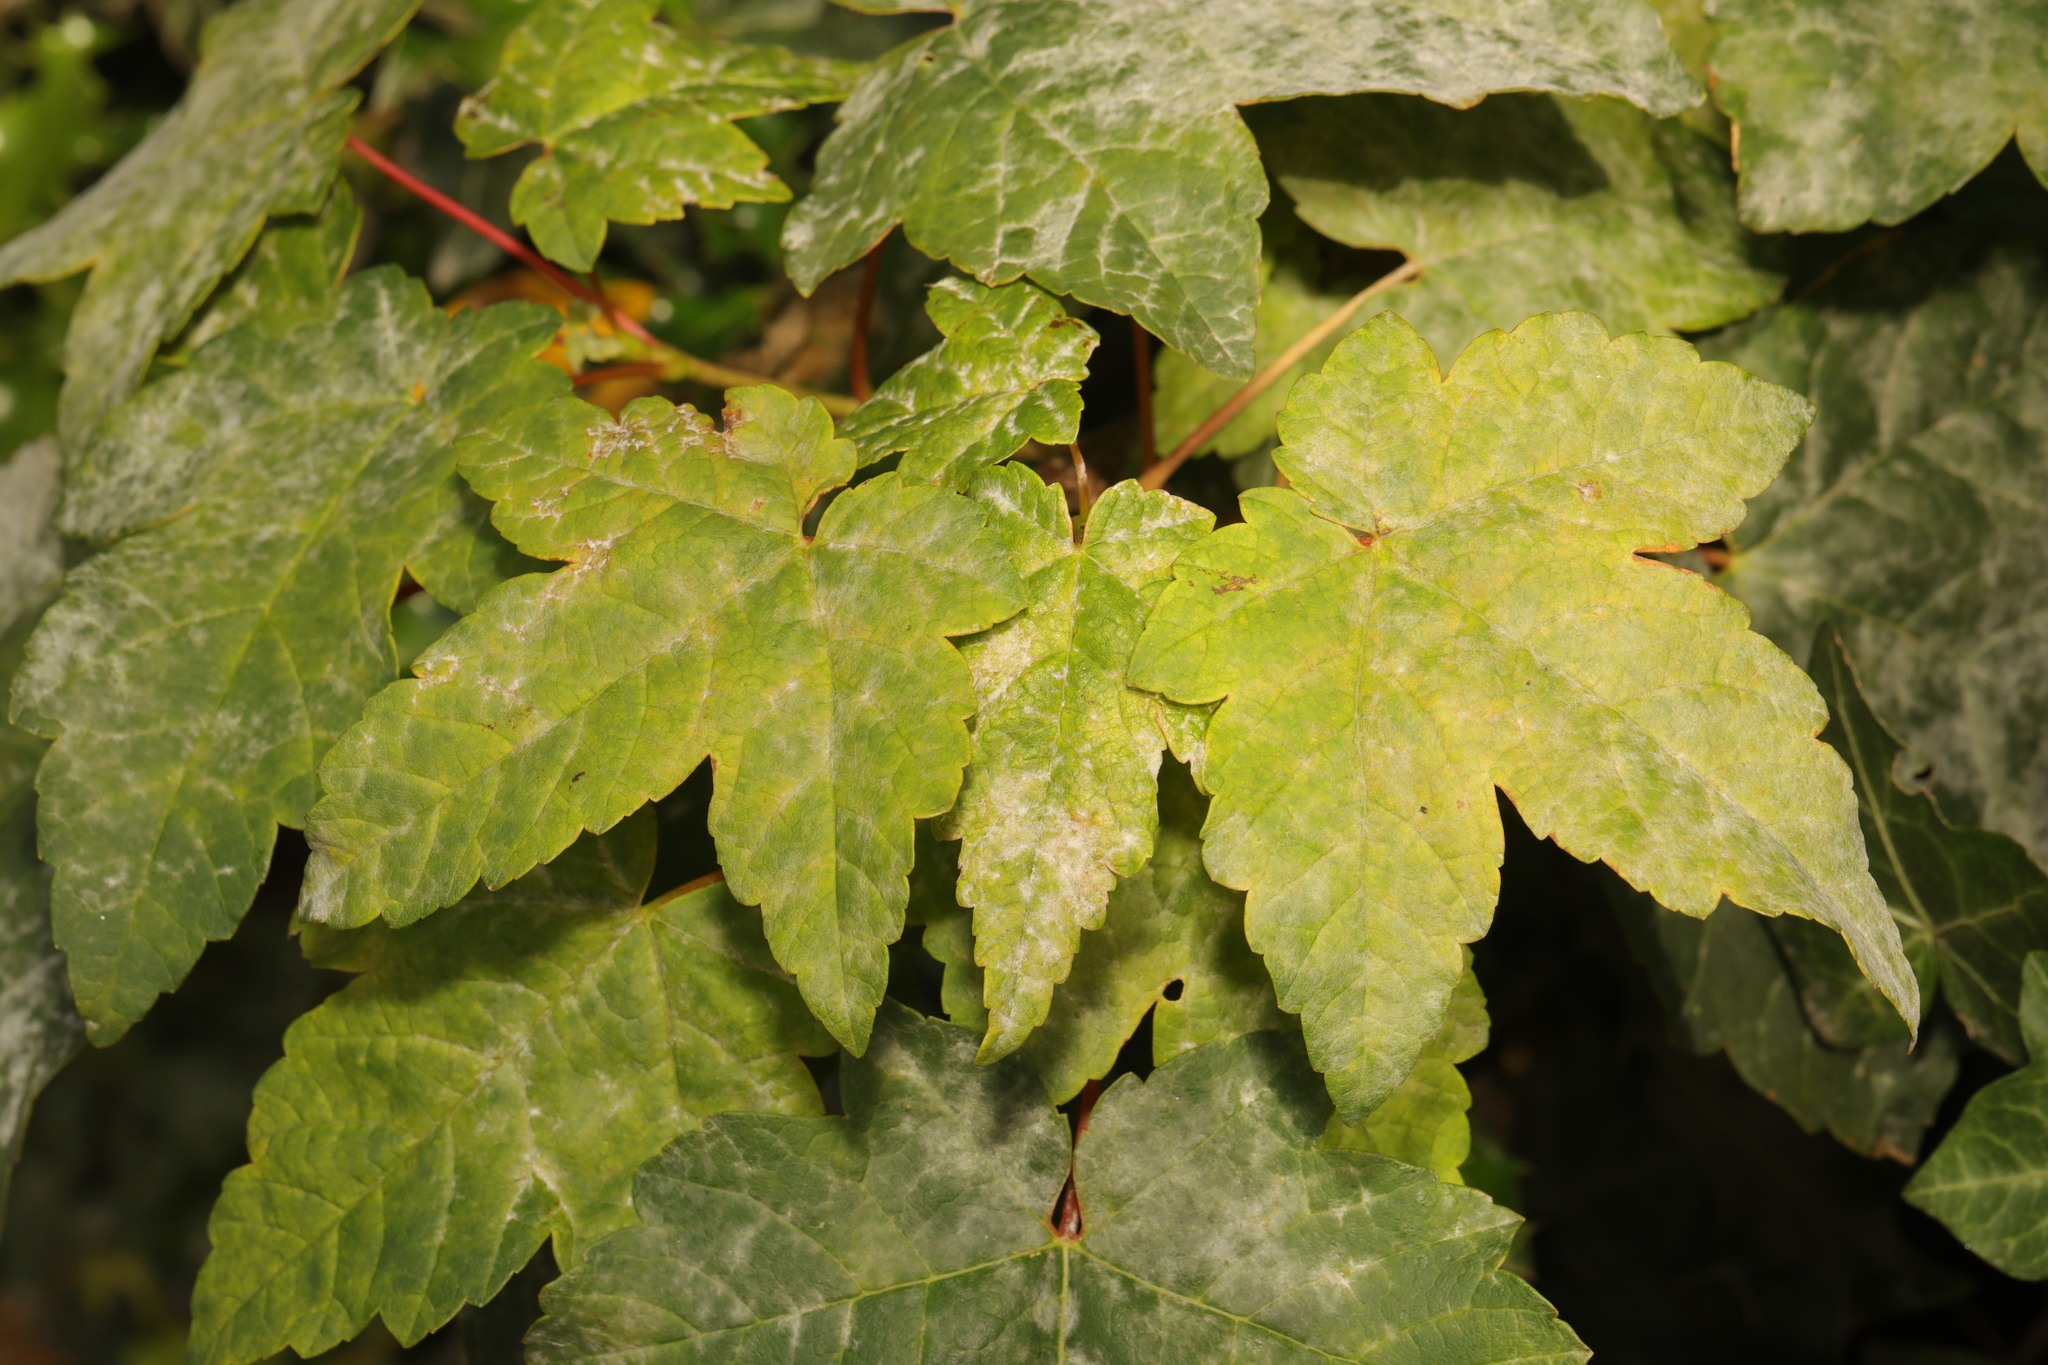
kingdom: Plantae
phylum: Tracheophyta
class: Magnoliopsida
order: Sapindales
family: Sapindaceae
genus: Acer
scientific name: Acer pseudoplatanus
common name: Sycamore
